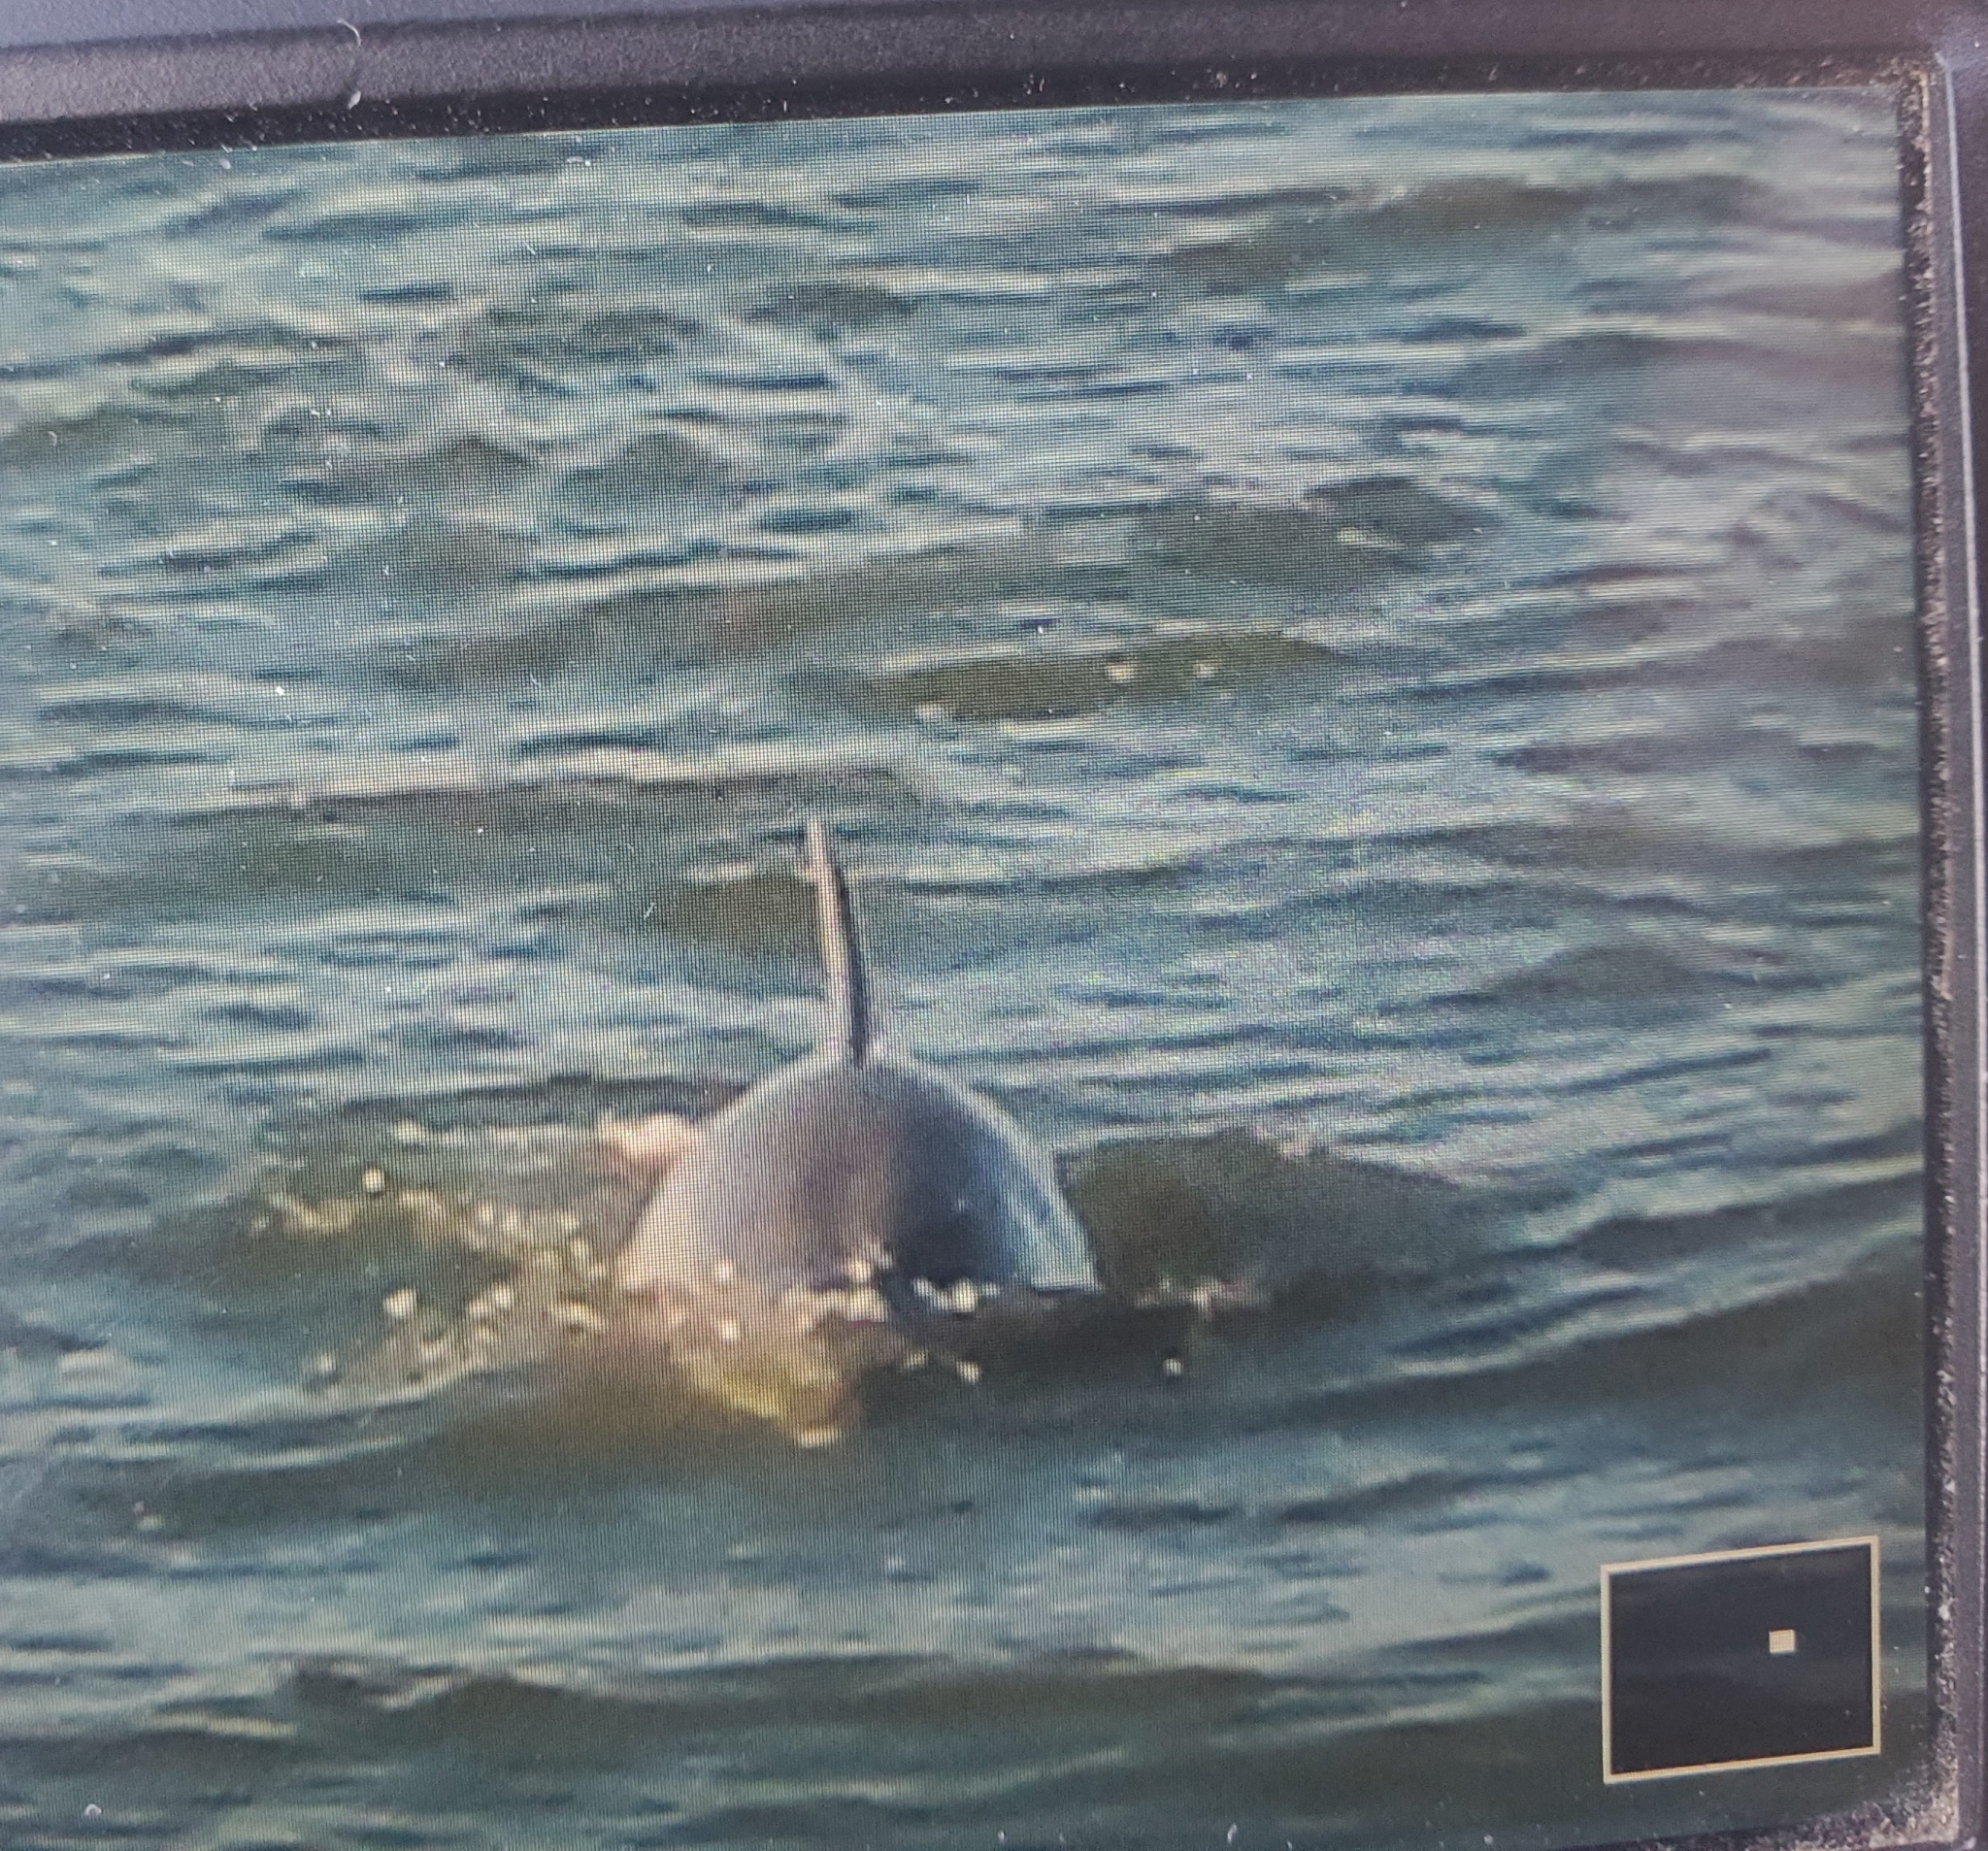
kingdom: Animalia
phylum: Chordata
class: Mammalia
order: Cetacea
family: Delphinidae
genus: Tursiops
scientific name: Tursiops truncatus
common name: Bottlenose dolphin
